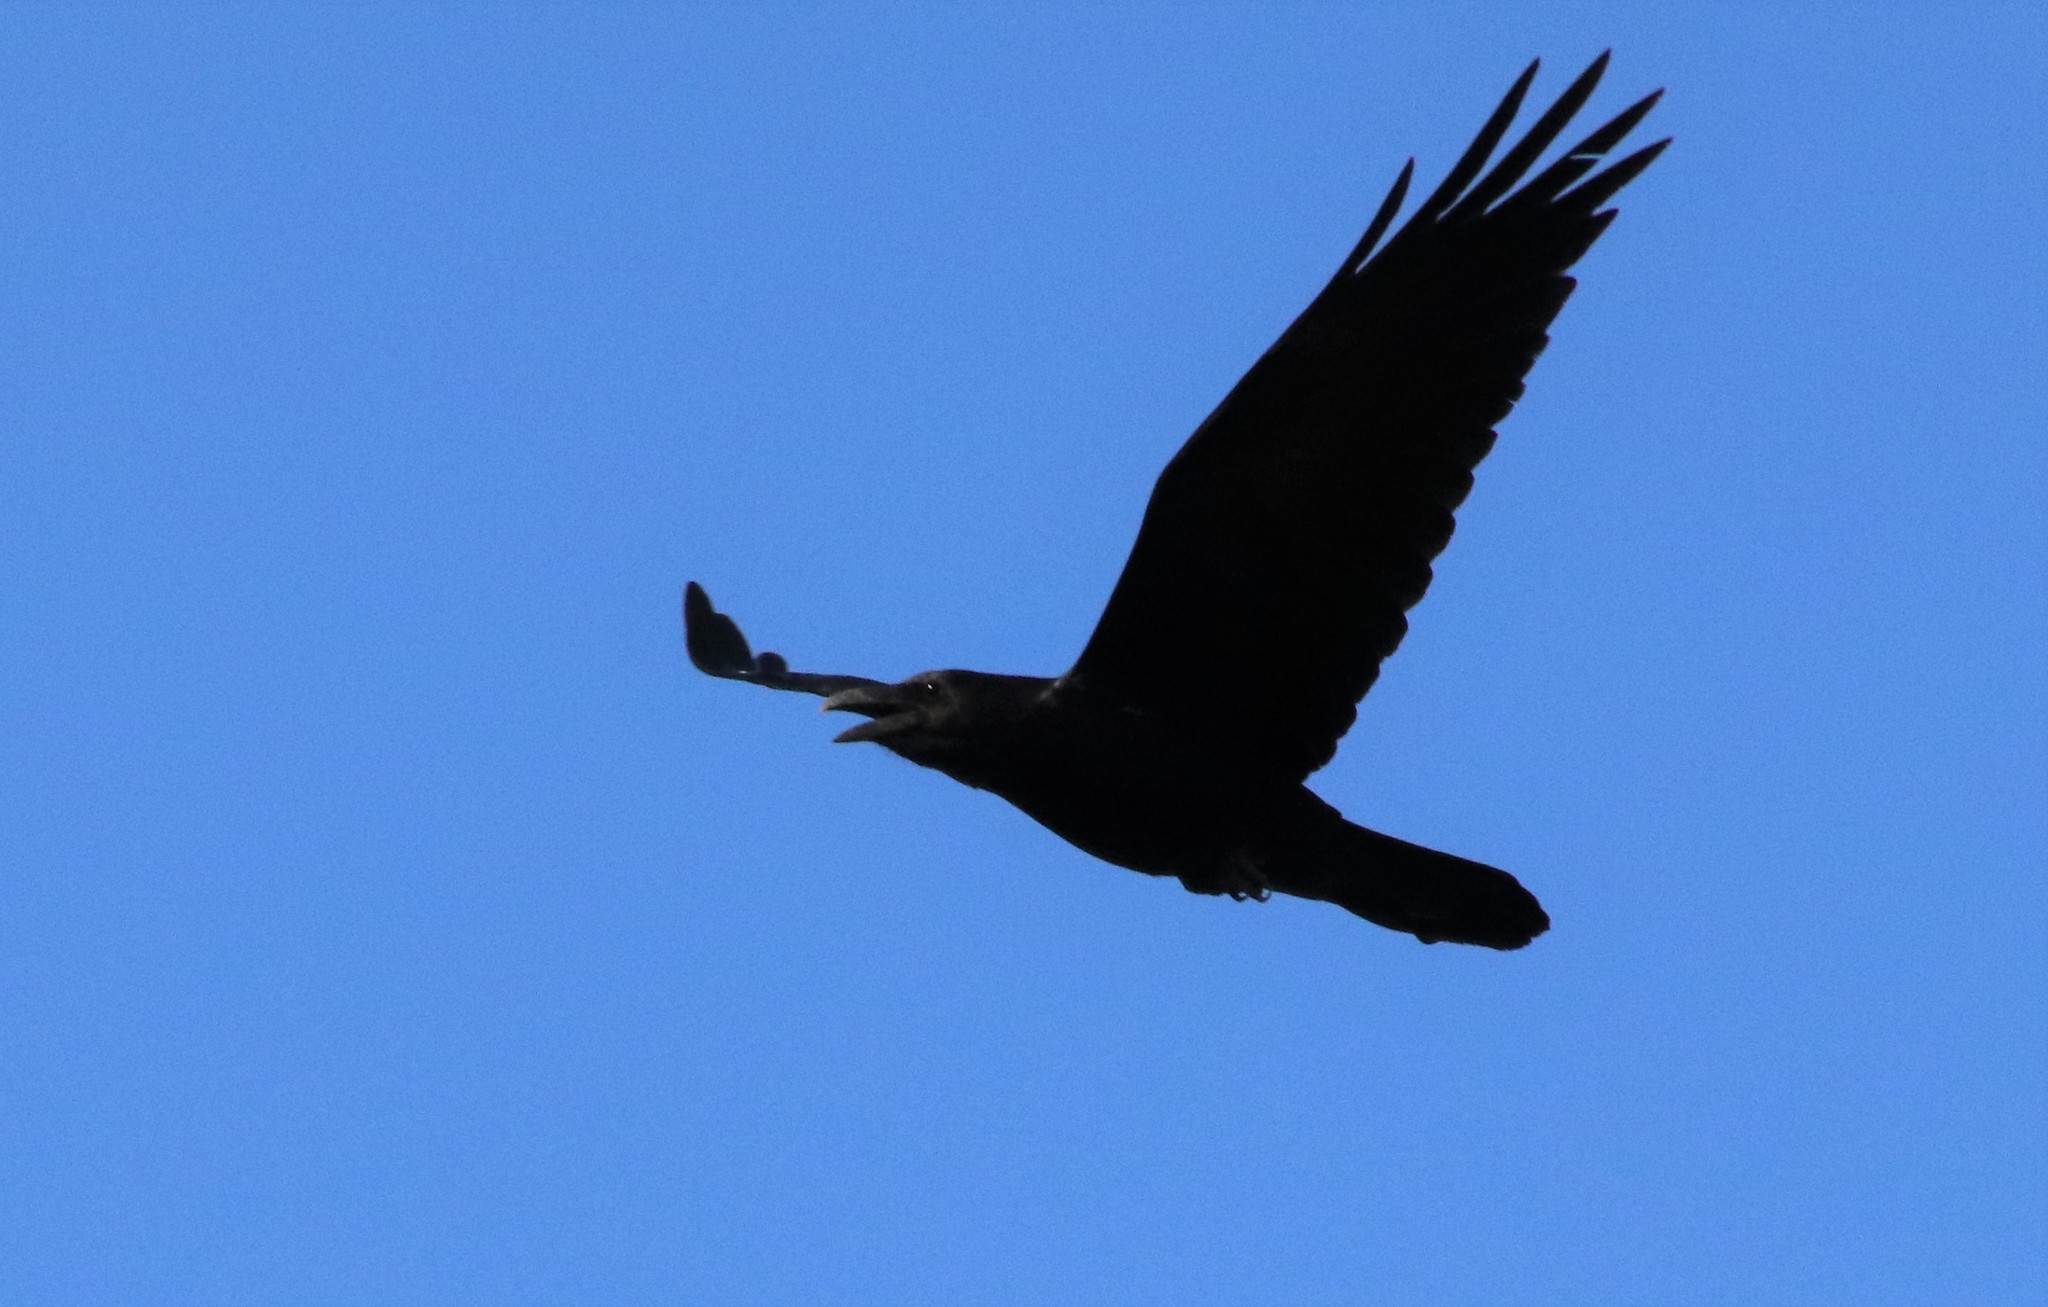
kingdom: Animalia
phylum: Chordata
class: Aves
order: Passeriformes
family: Corvidae
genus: Corvus
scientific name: Corvus corax
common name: Common raven
